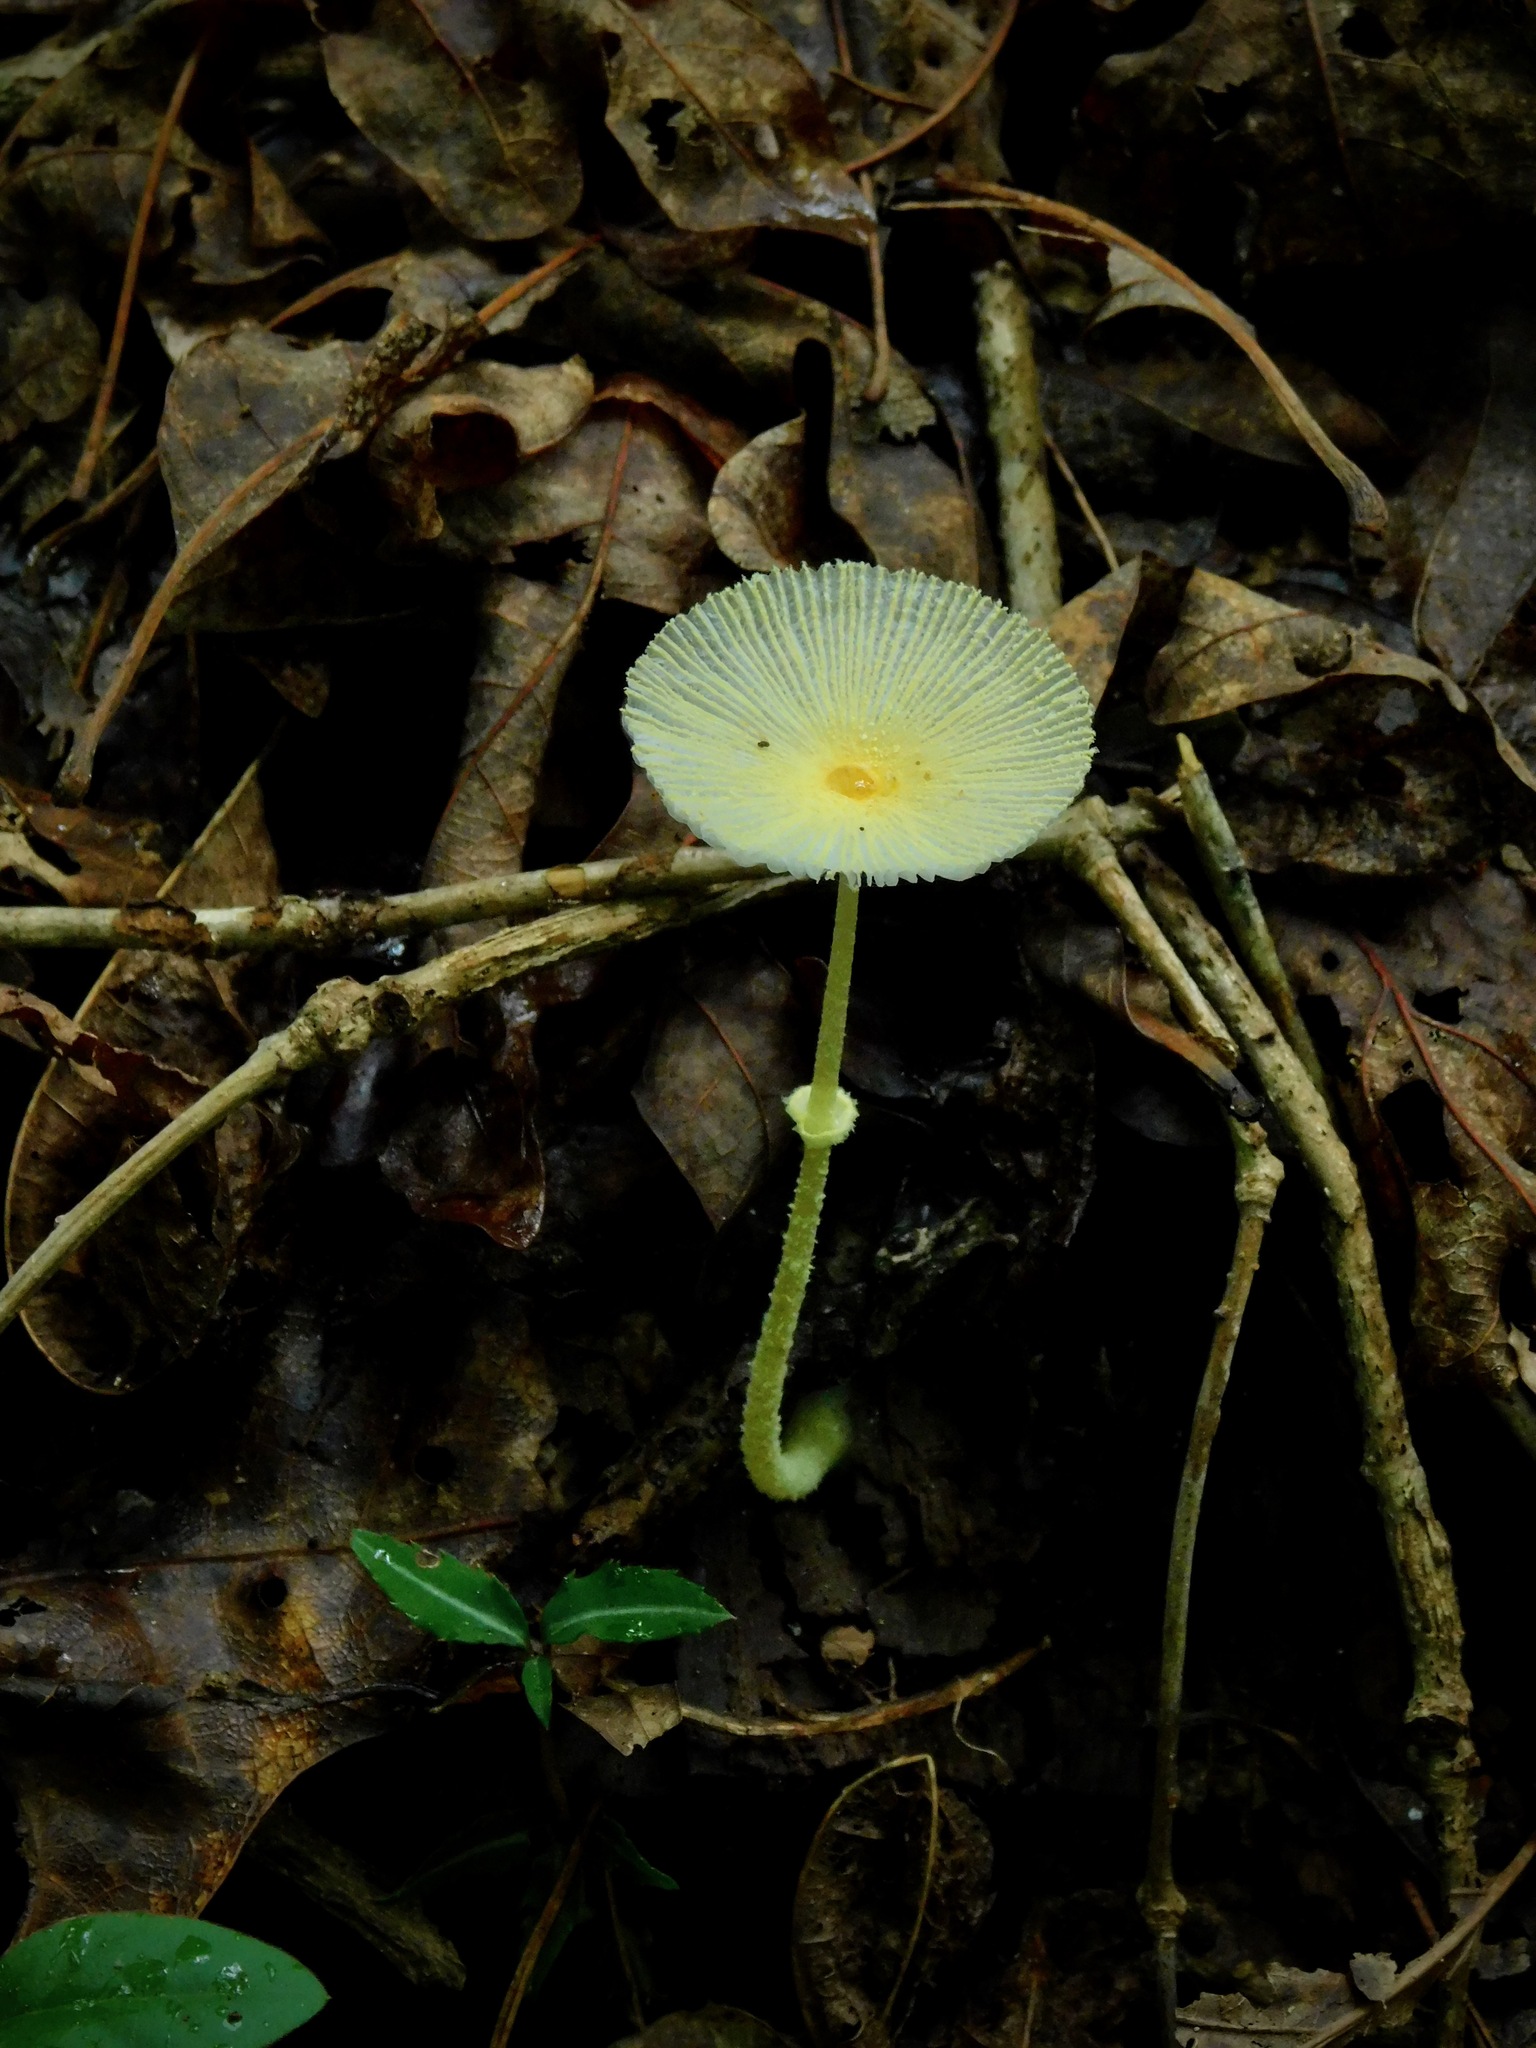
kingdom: Fungi
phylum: Basidiomycota
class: Agaricomycetes
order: Agaricales
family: Agaricaceae
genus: Leucocoprinus
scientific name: Leucocoprinus fragilissimus
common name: Fragile dapperling
